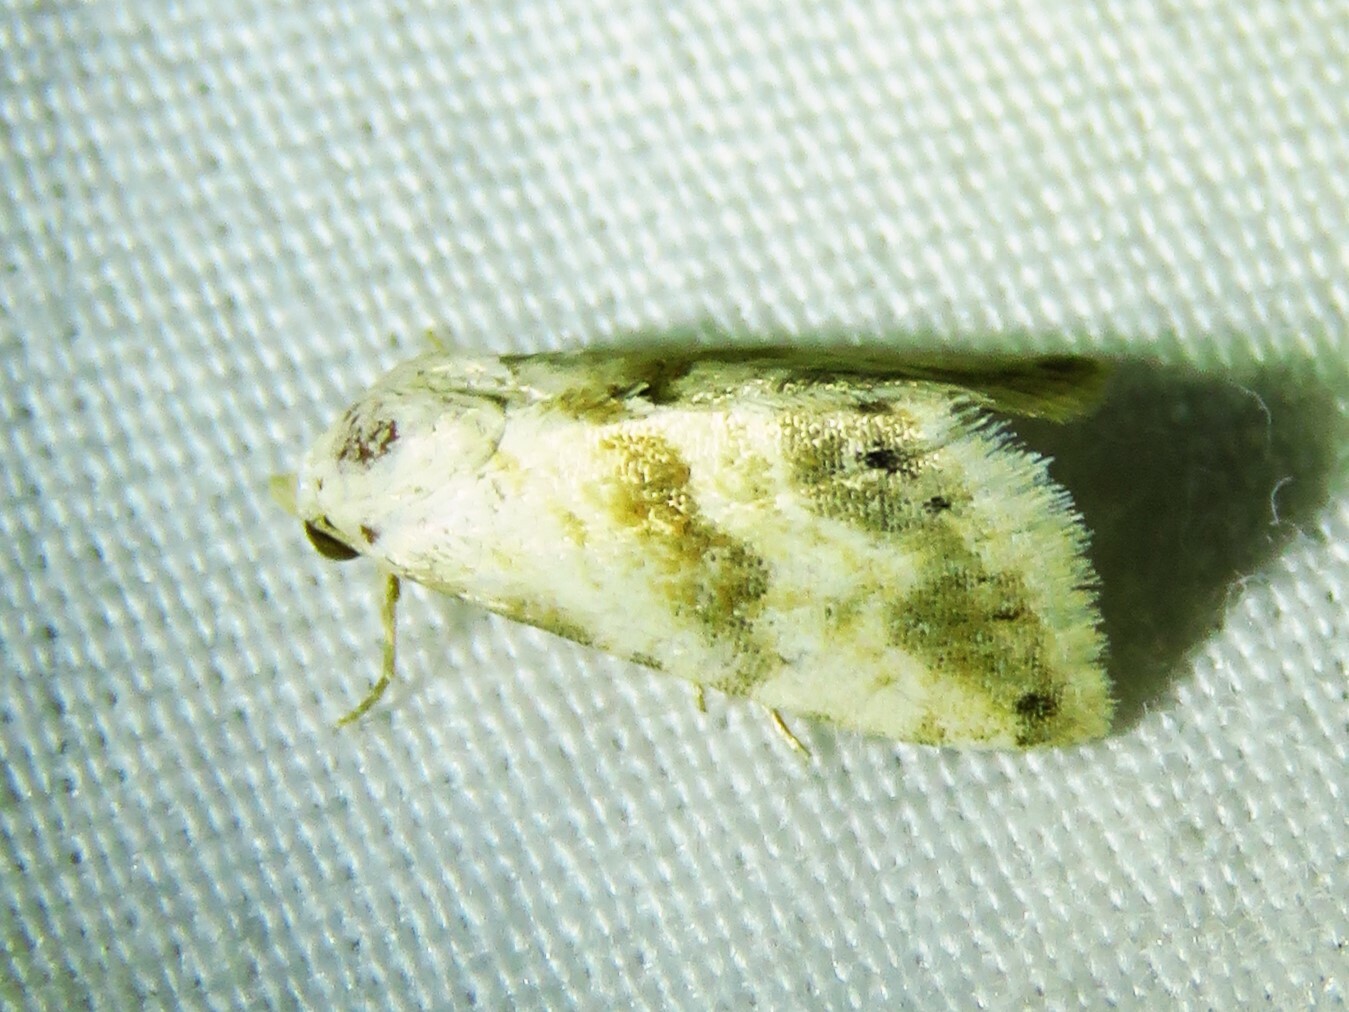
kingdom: Animalia
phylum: Arthropoda
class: Insecta
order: Lepidoptera
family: Noctuidae
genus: Eublemma
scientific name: Eublemma minima
